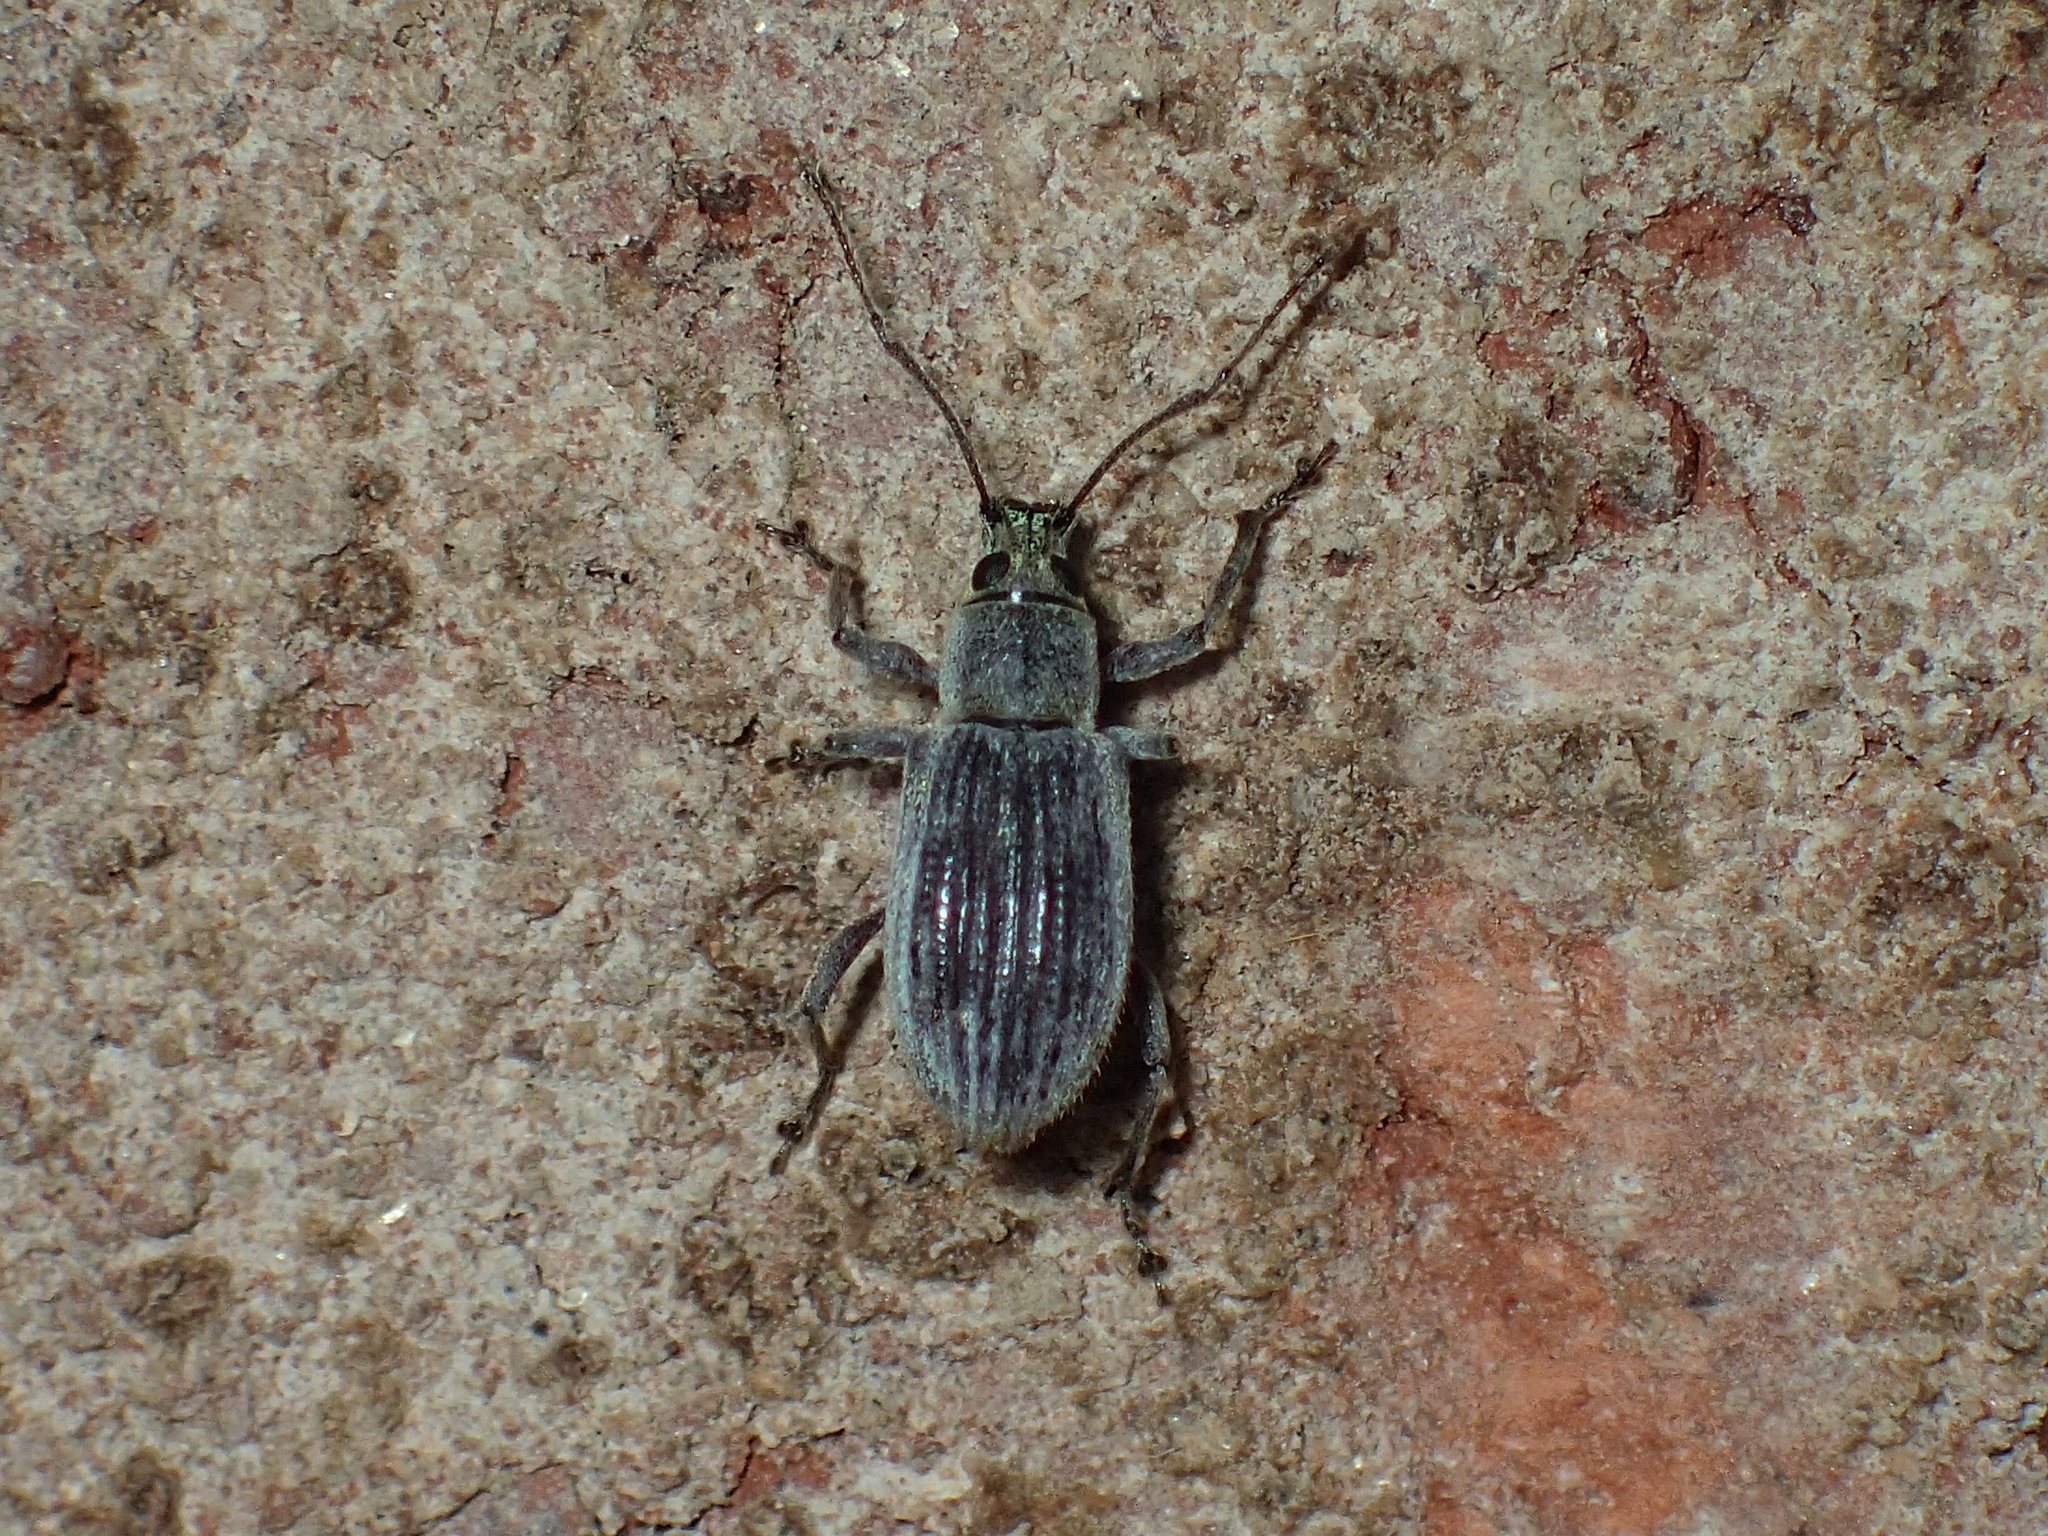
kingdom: Animalia
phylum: Arthropoda
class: Insecta
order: Coleoptera
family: Curculionidae
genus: Cyrtepistomus
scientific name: Cyrtepistomus castaneus
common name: Weevil
